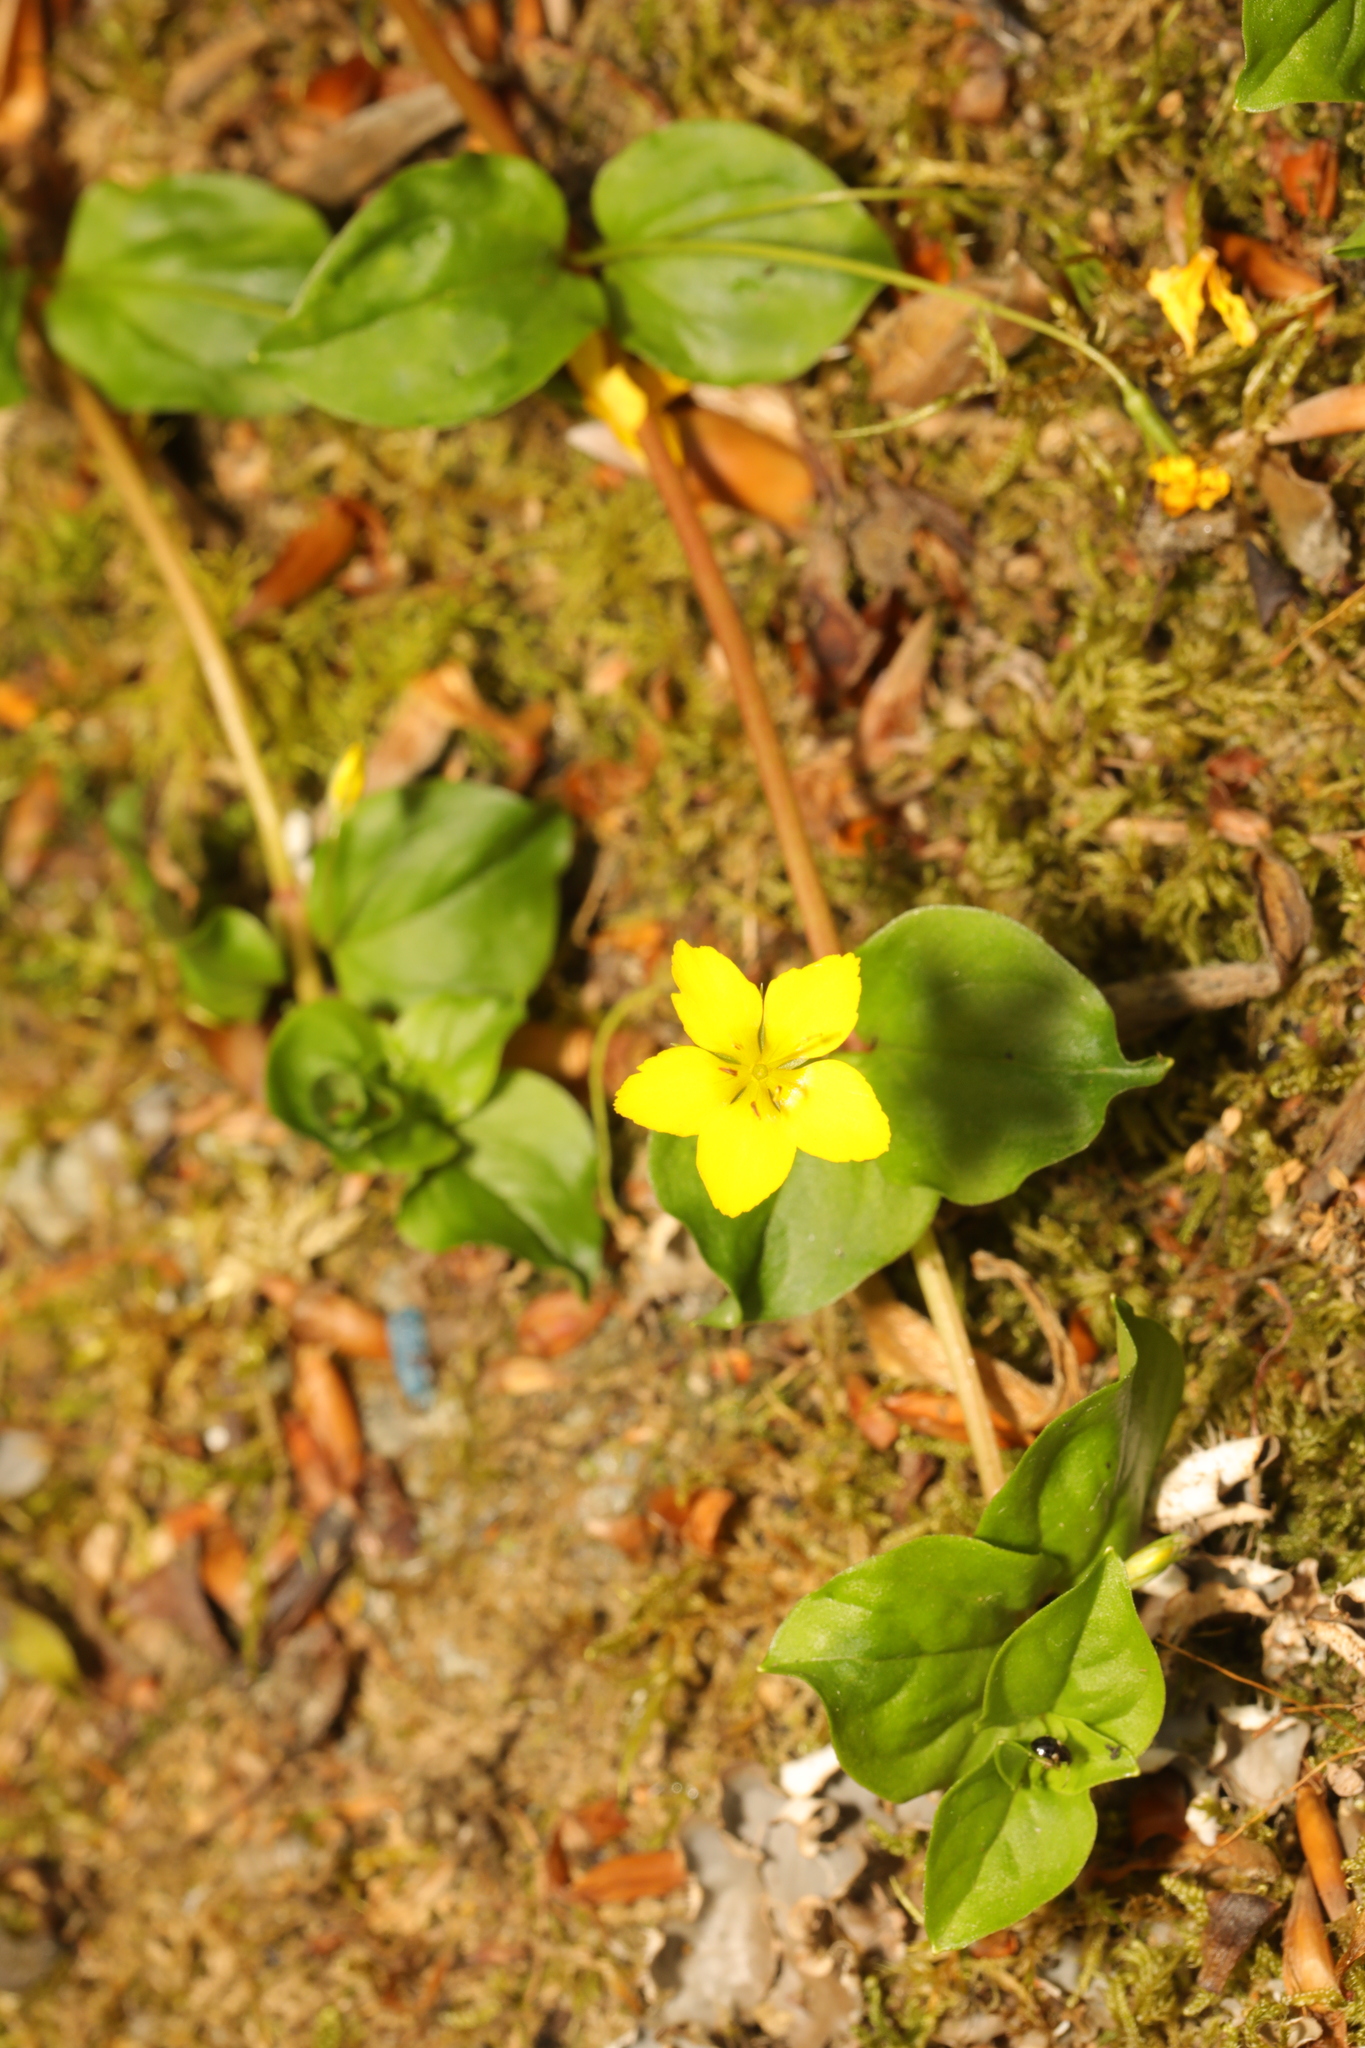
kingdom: Plantae
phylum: Tracheophyta
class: Magnoliopsida
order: Ericales
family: Primulaceae
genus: Lysimachia
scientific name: Lysimachia nemorum
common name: Yellow pimpernel
